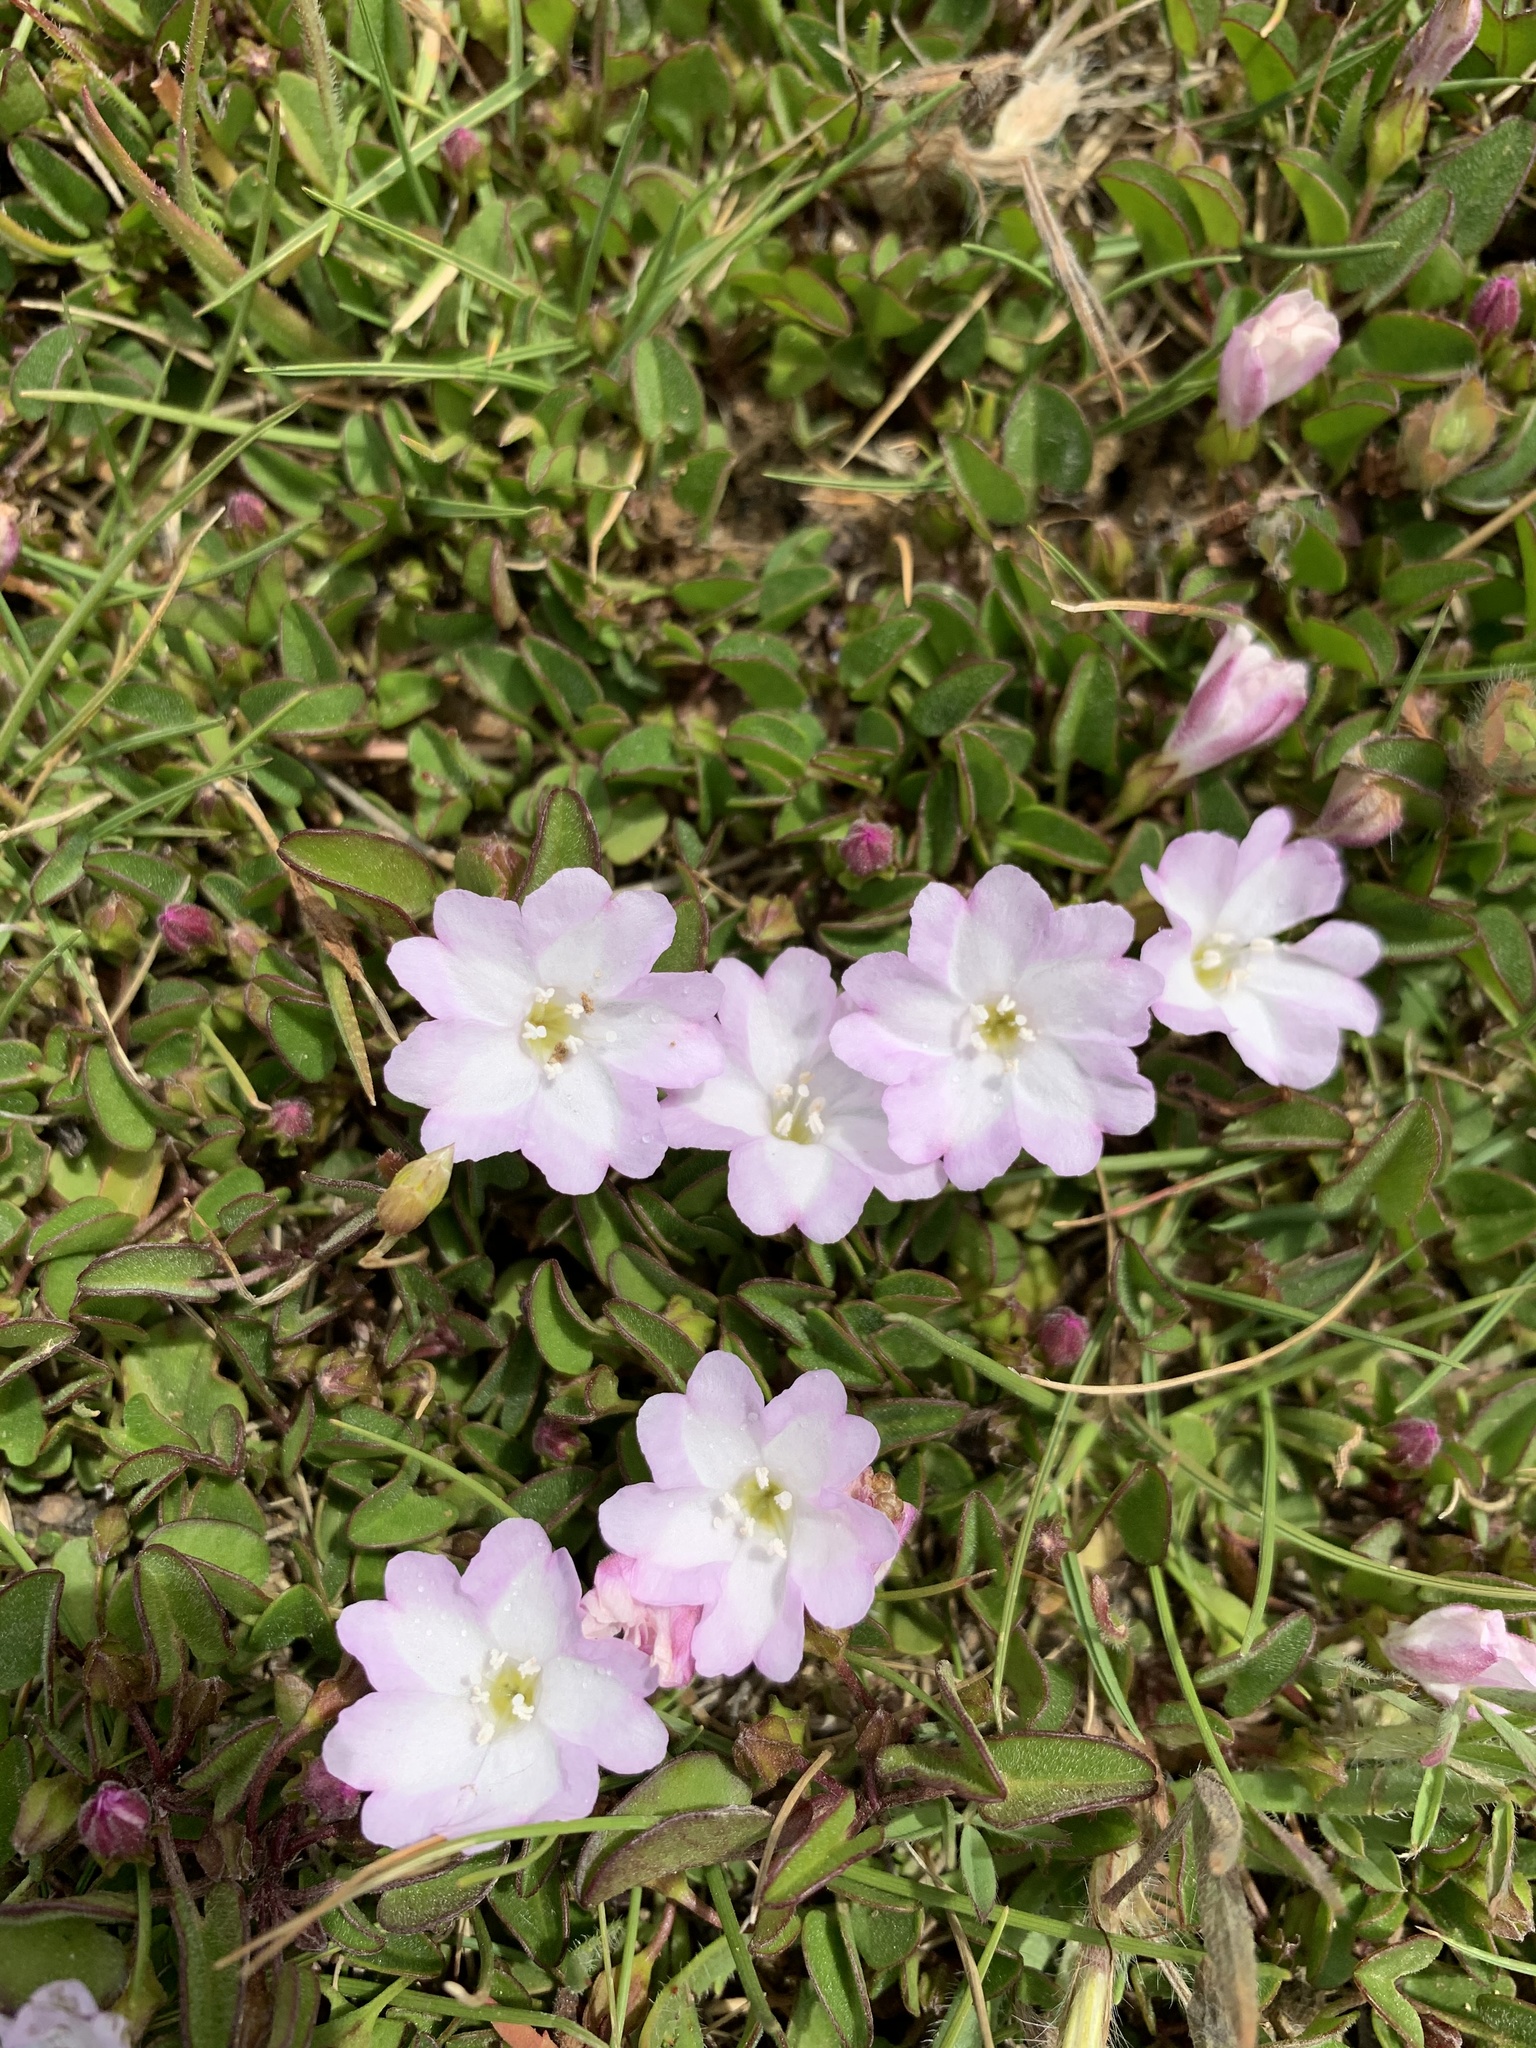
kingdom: Plantae
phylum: Tracheophyta
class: Magnoliopsida
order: Solanales
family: Convolvulaceae
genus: Falkia
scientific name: Falkia repens
